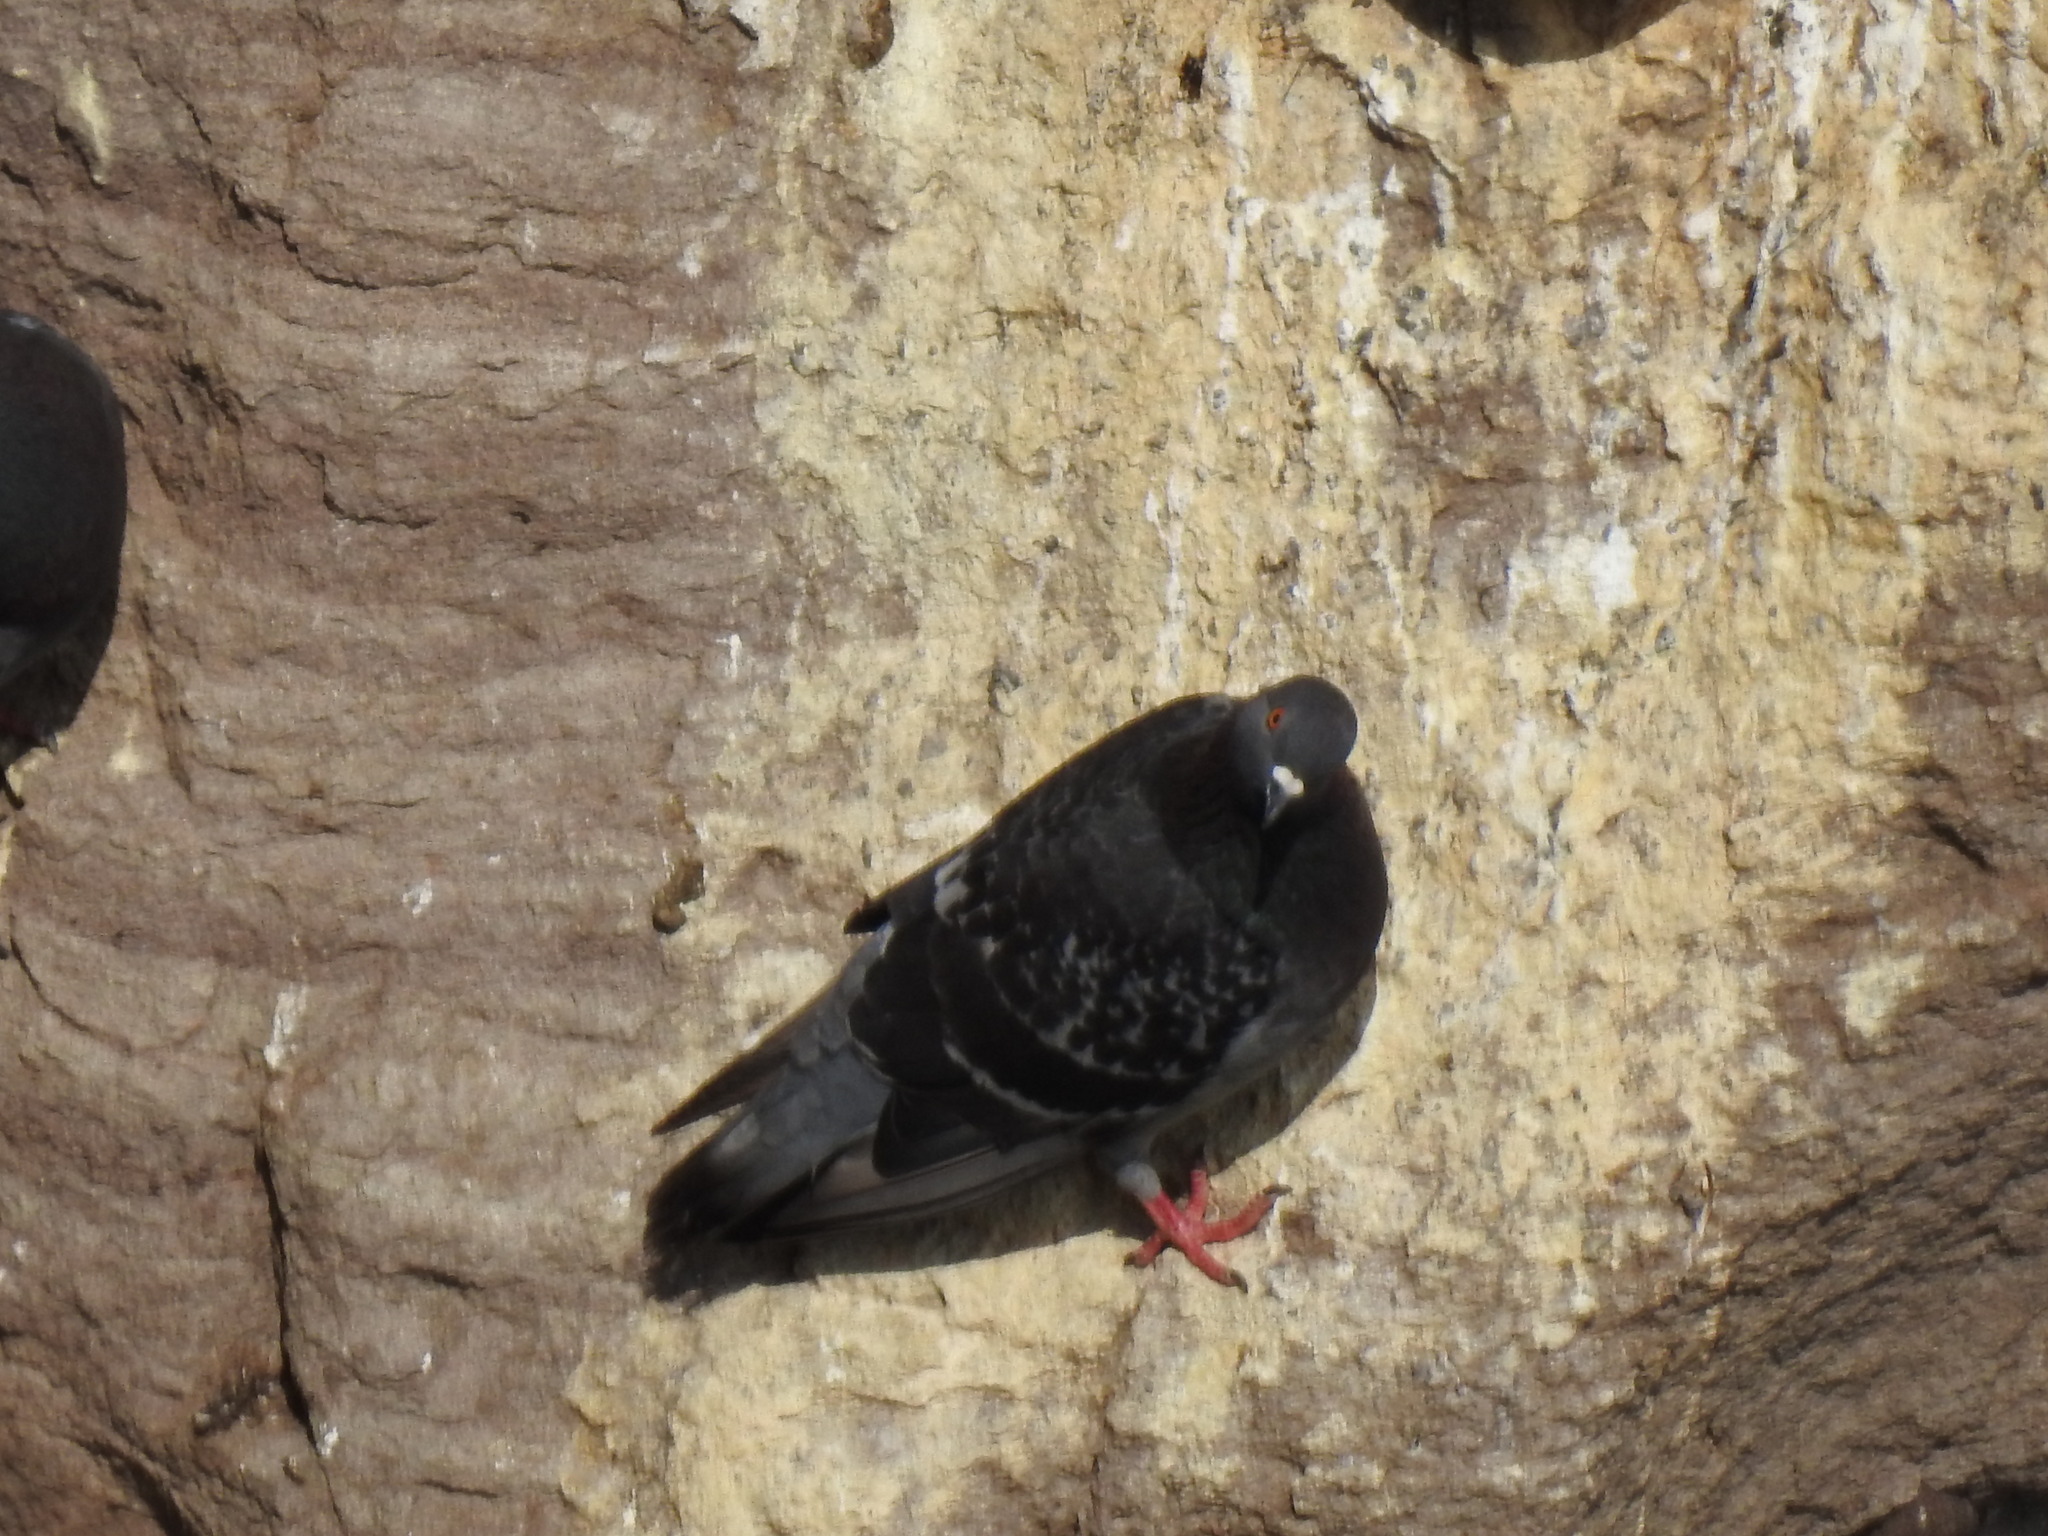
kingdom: Animalia
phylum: Chordata
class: Aves
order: Columbiformes
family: Columbidae
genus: Columba
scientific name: Columba livia
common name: Rock pigeon
